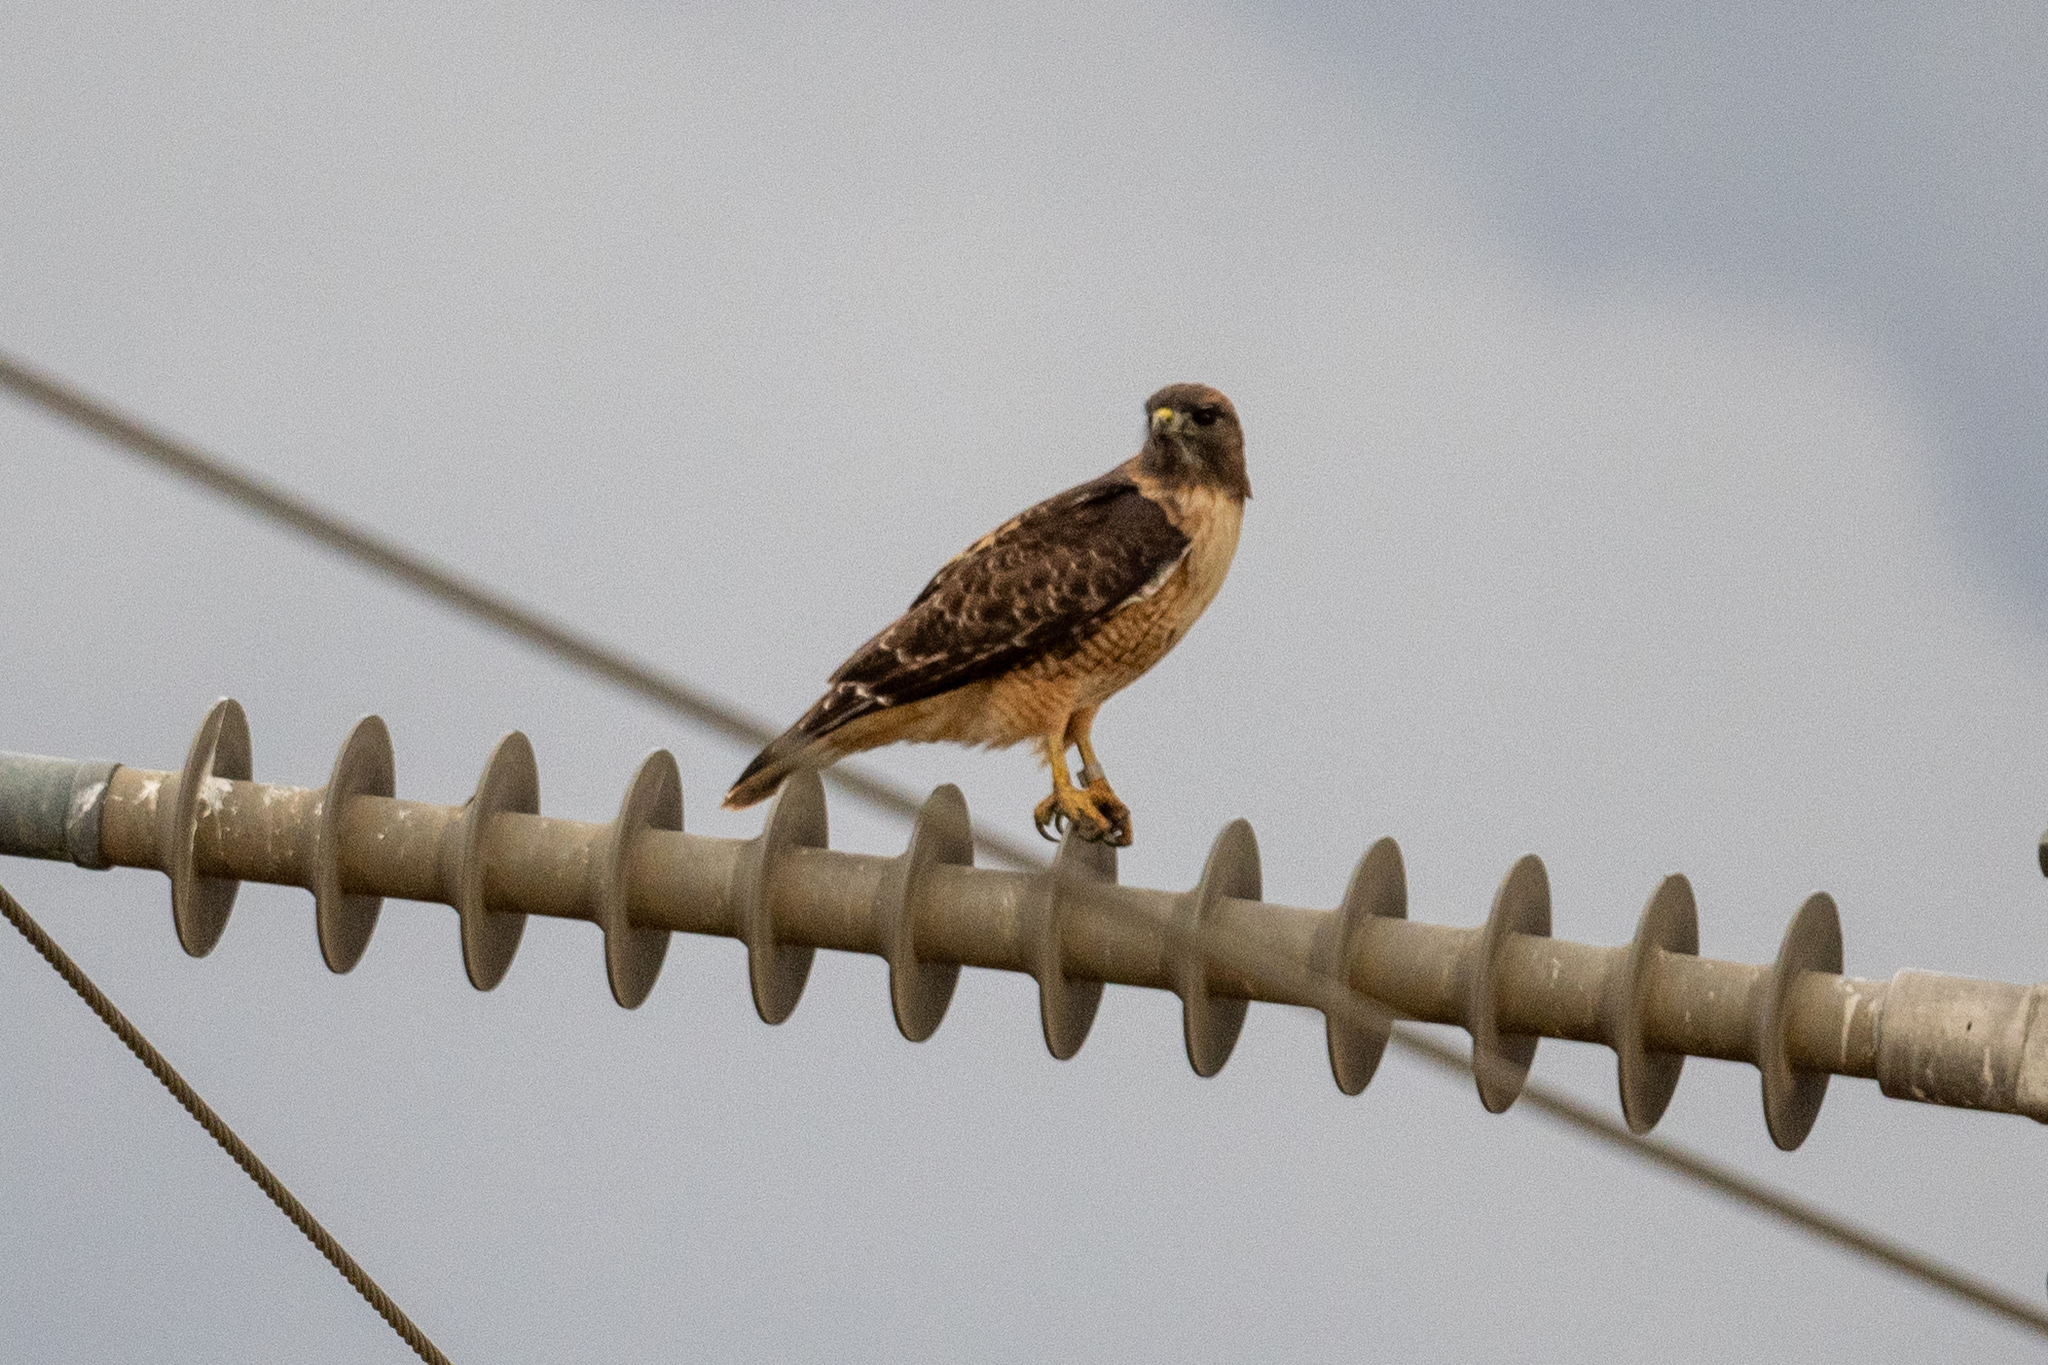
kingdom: Animalia
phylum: Chordata
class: Aves
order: Accipitriformes
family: Accipitridae
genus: Buteo
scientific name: Buteo jamaicensis
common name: Red-tailed hawk
